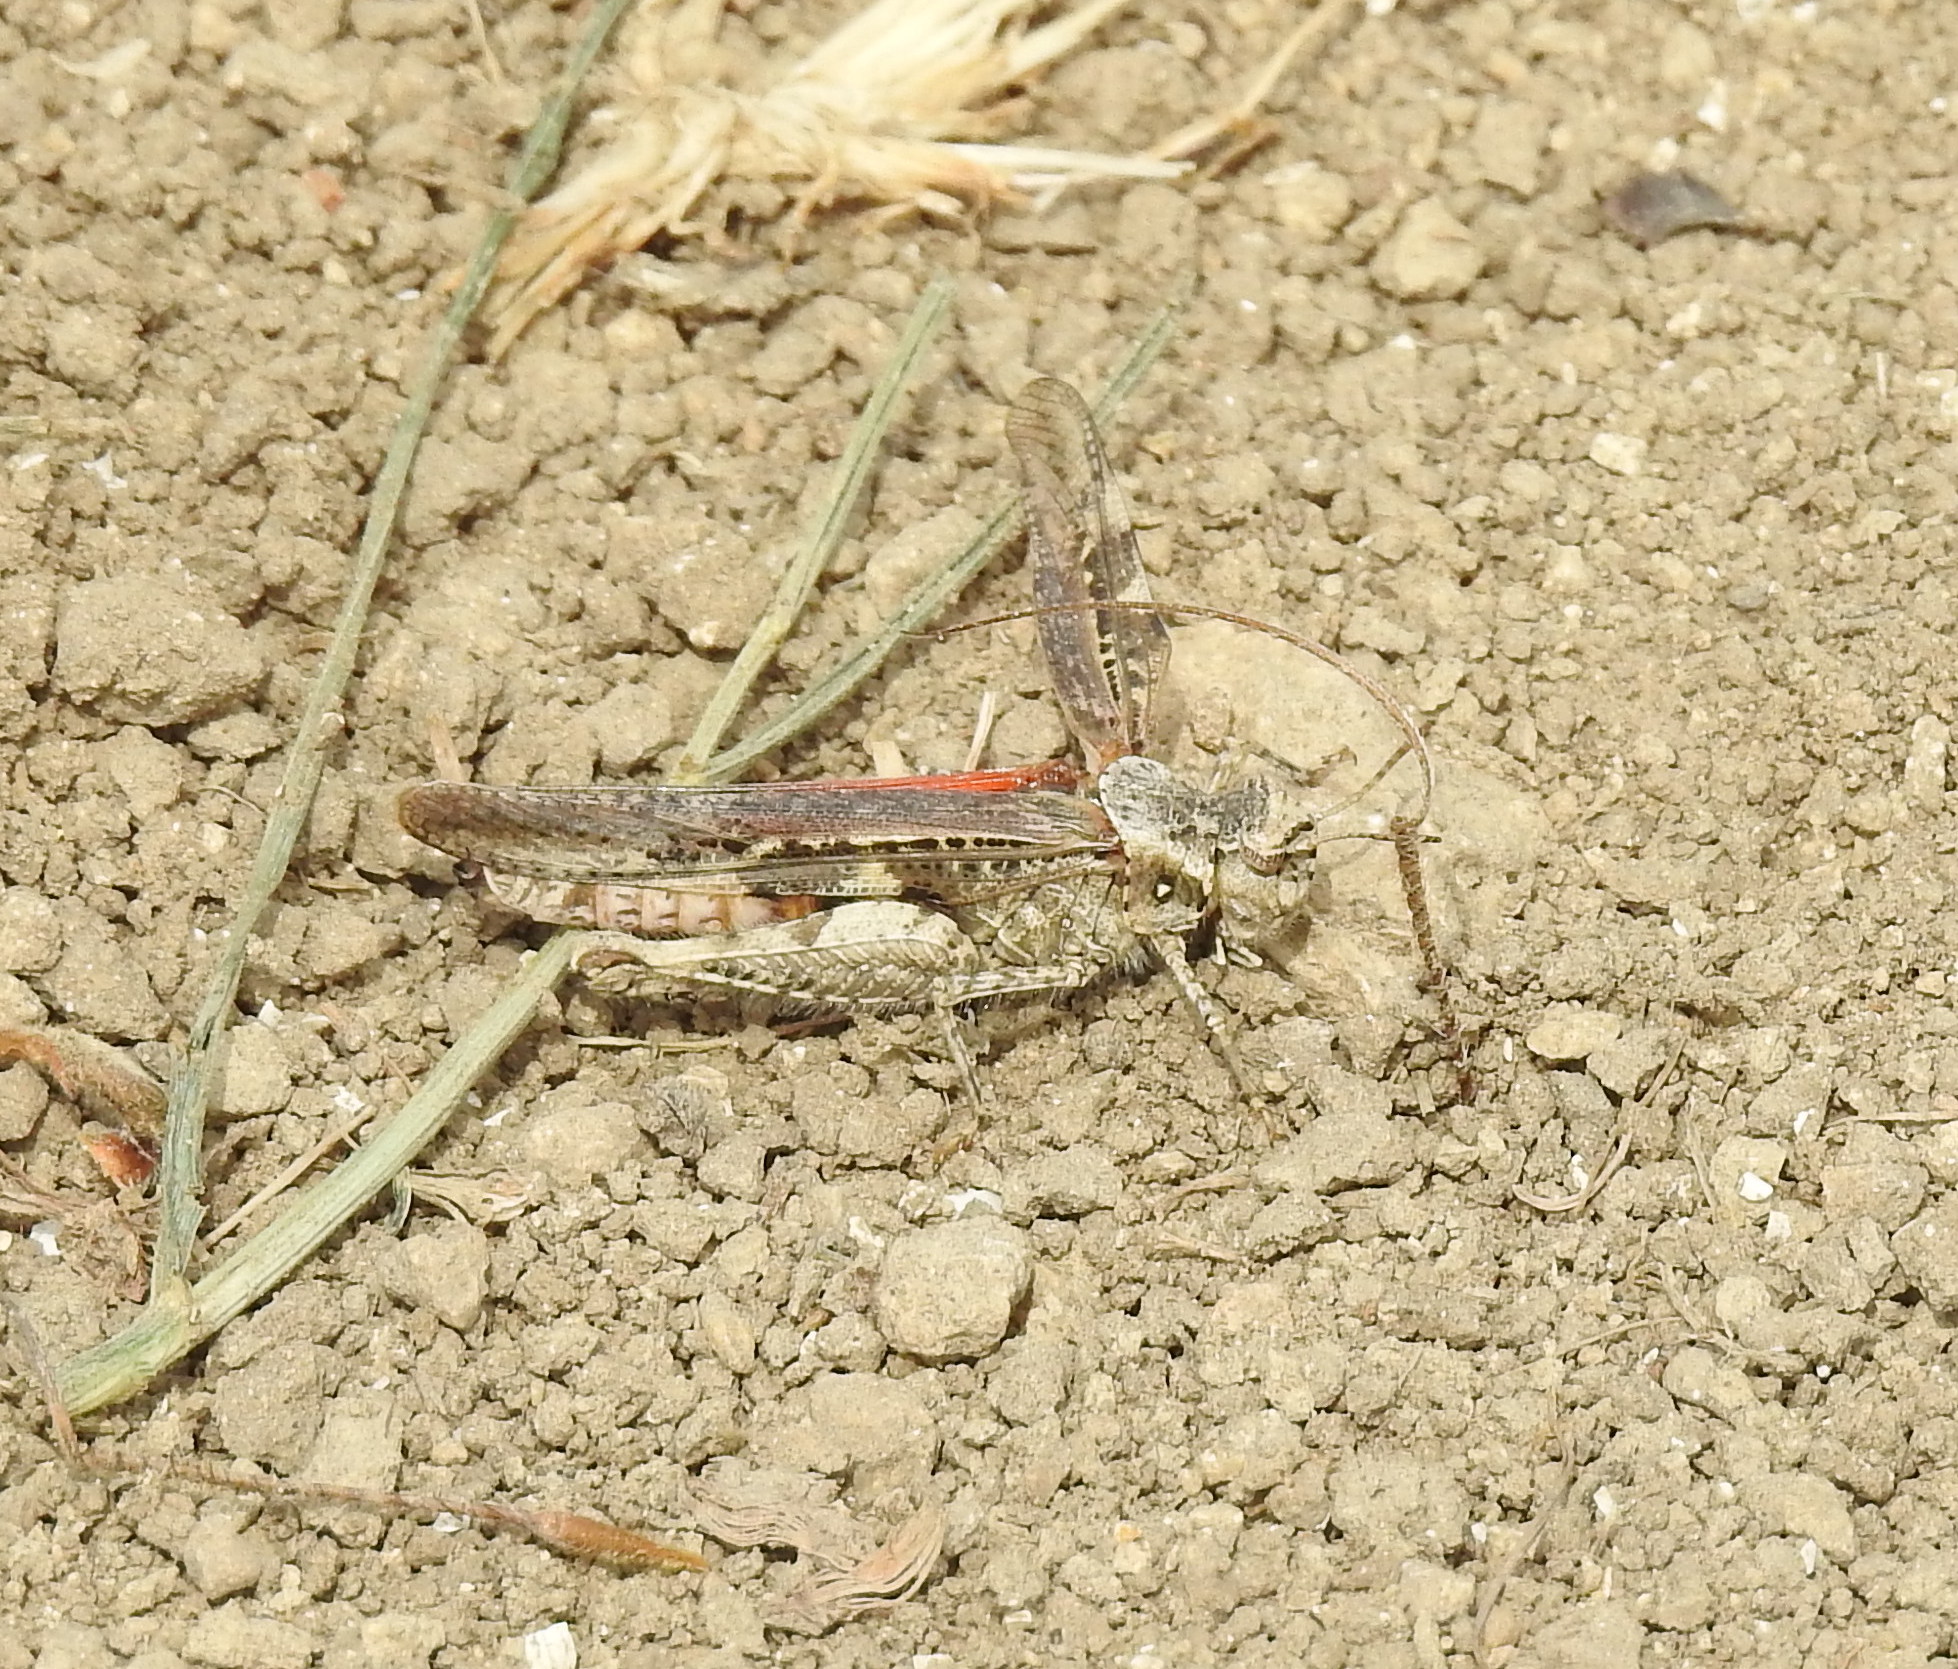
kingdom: Animalia
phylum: Arthropoda
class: Insecta
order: Orthoptera
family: Acrididae
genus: Acrotylus
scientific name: Acrotylus insubricus
